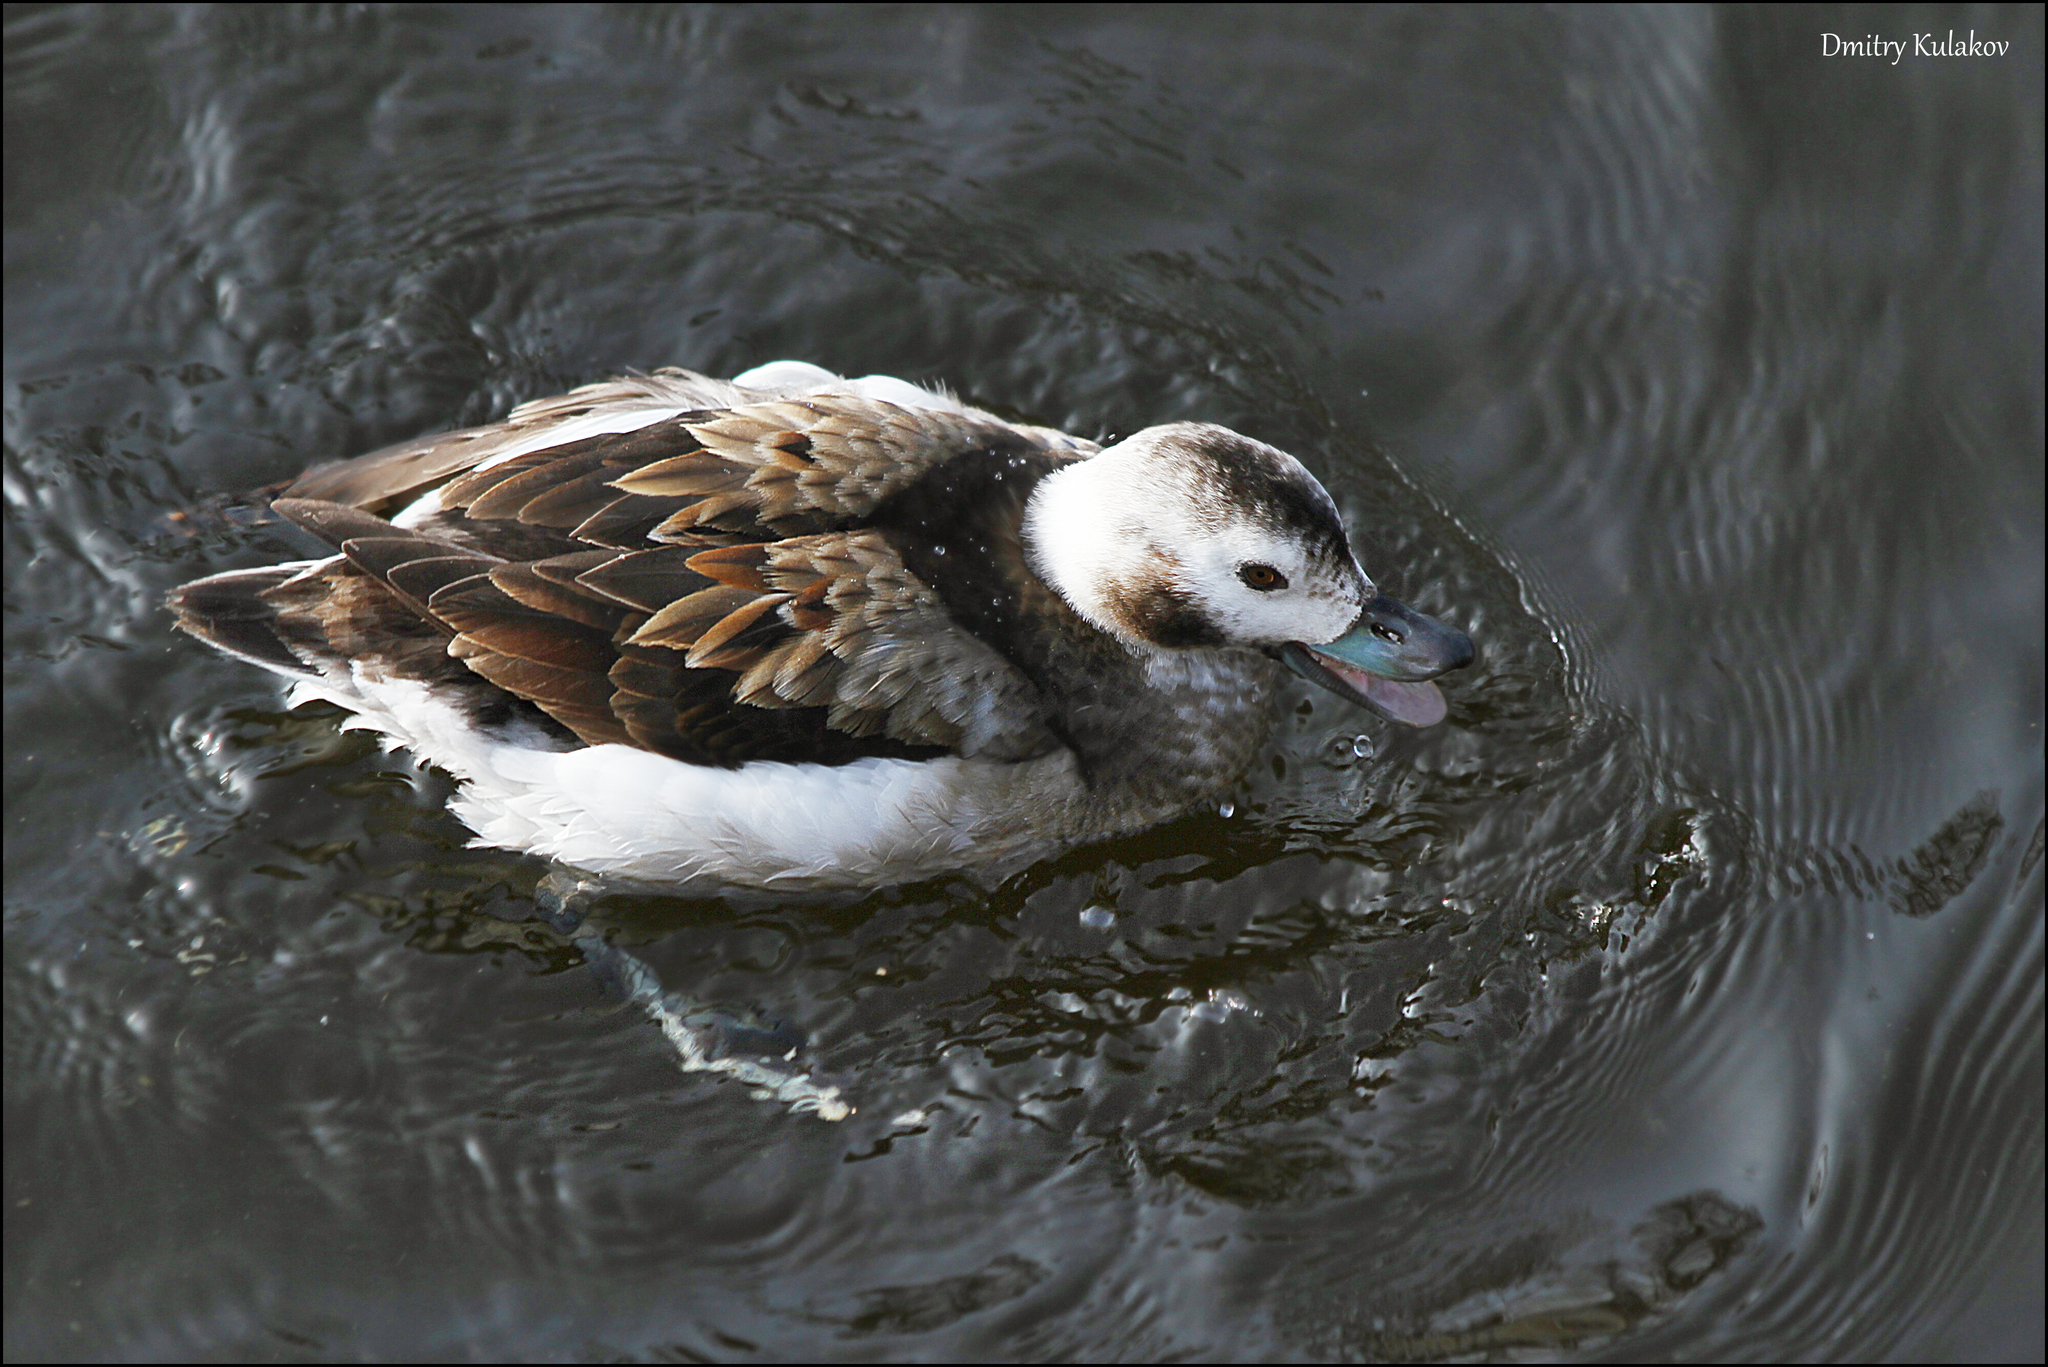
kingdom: Animalia
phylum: Chordata
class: Aves
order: Anseriformes
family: Anatidae
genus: Clangula
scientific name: Clangula hyemalis
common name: Long-tailed duck
